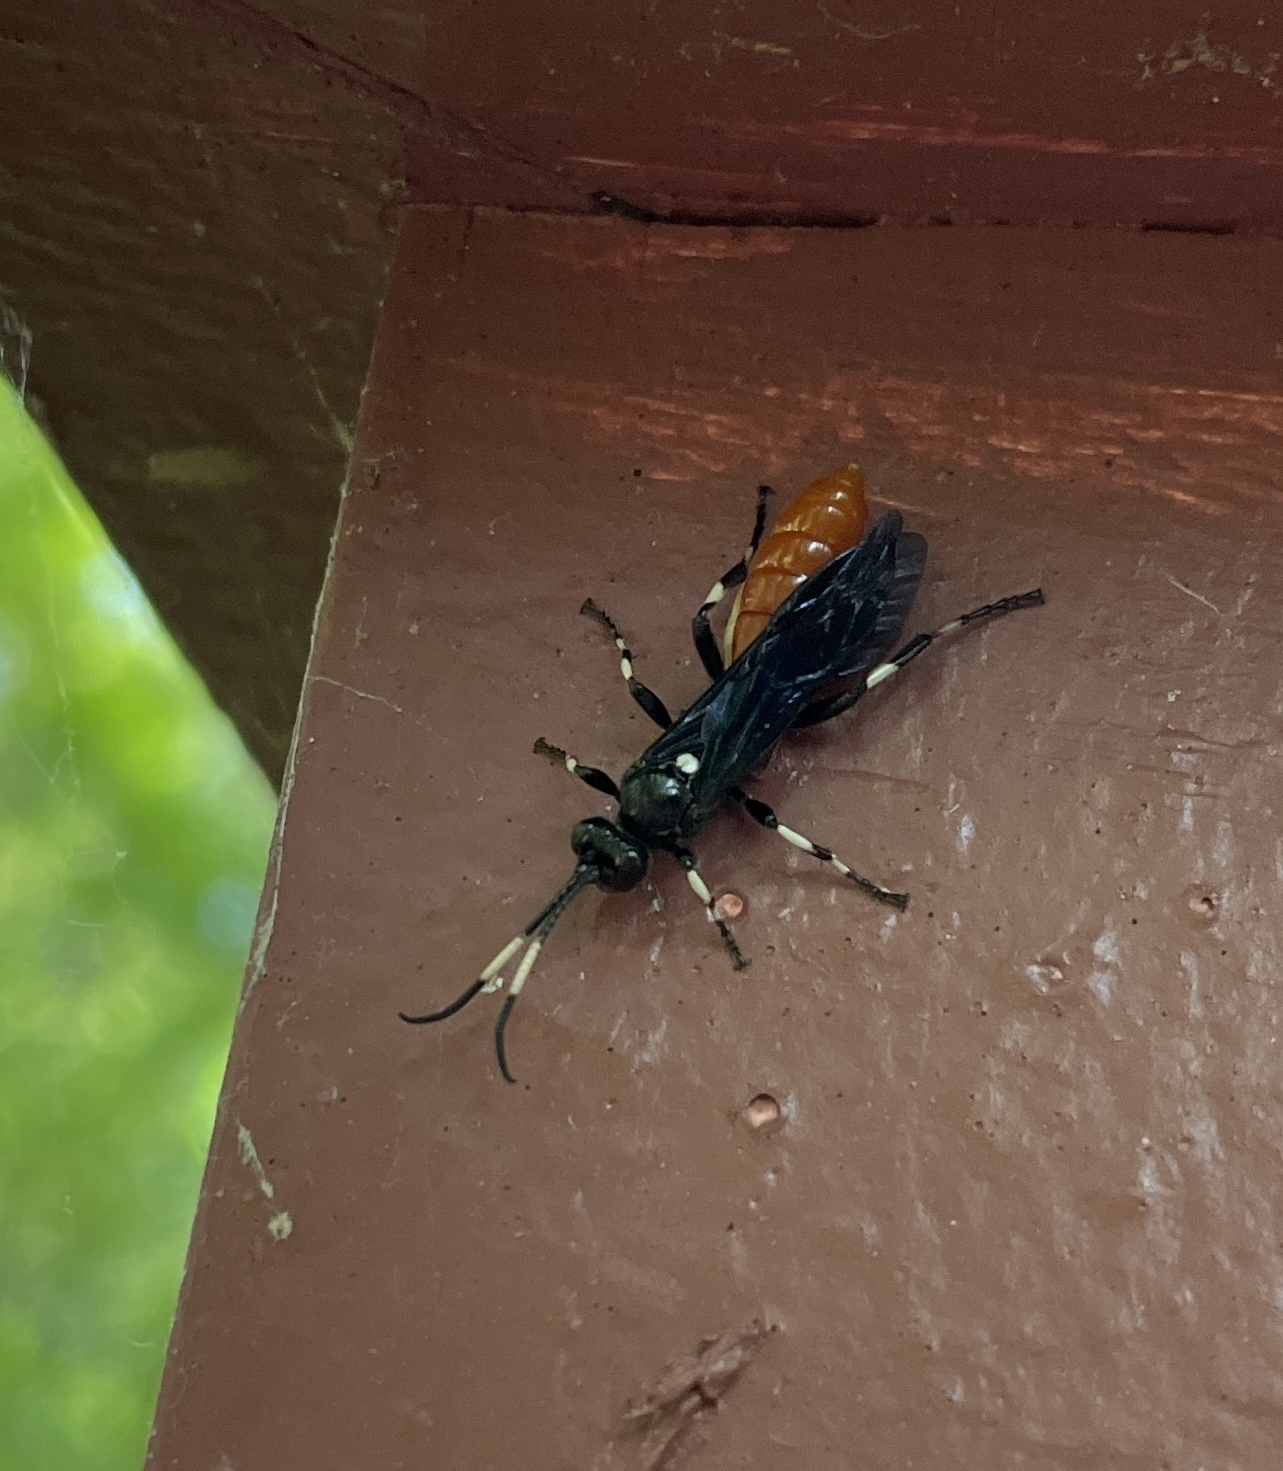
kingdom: Animalia
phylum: Arthropoda
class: Insecta
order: Hymenoptera
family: Ichneumonidae
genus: Ichneumon
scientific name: Ichneumon devinctor
